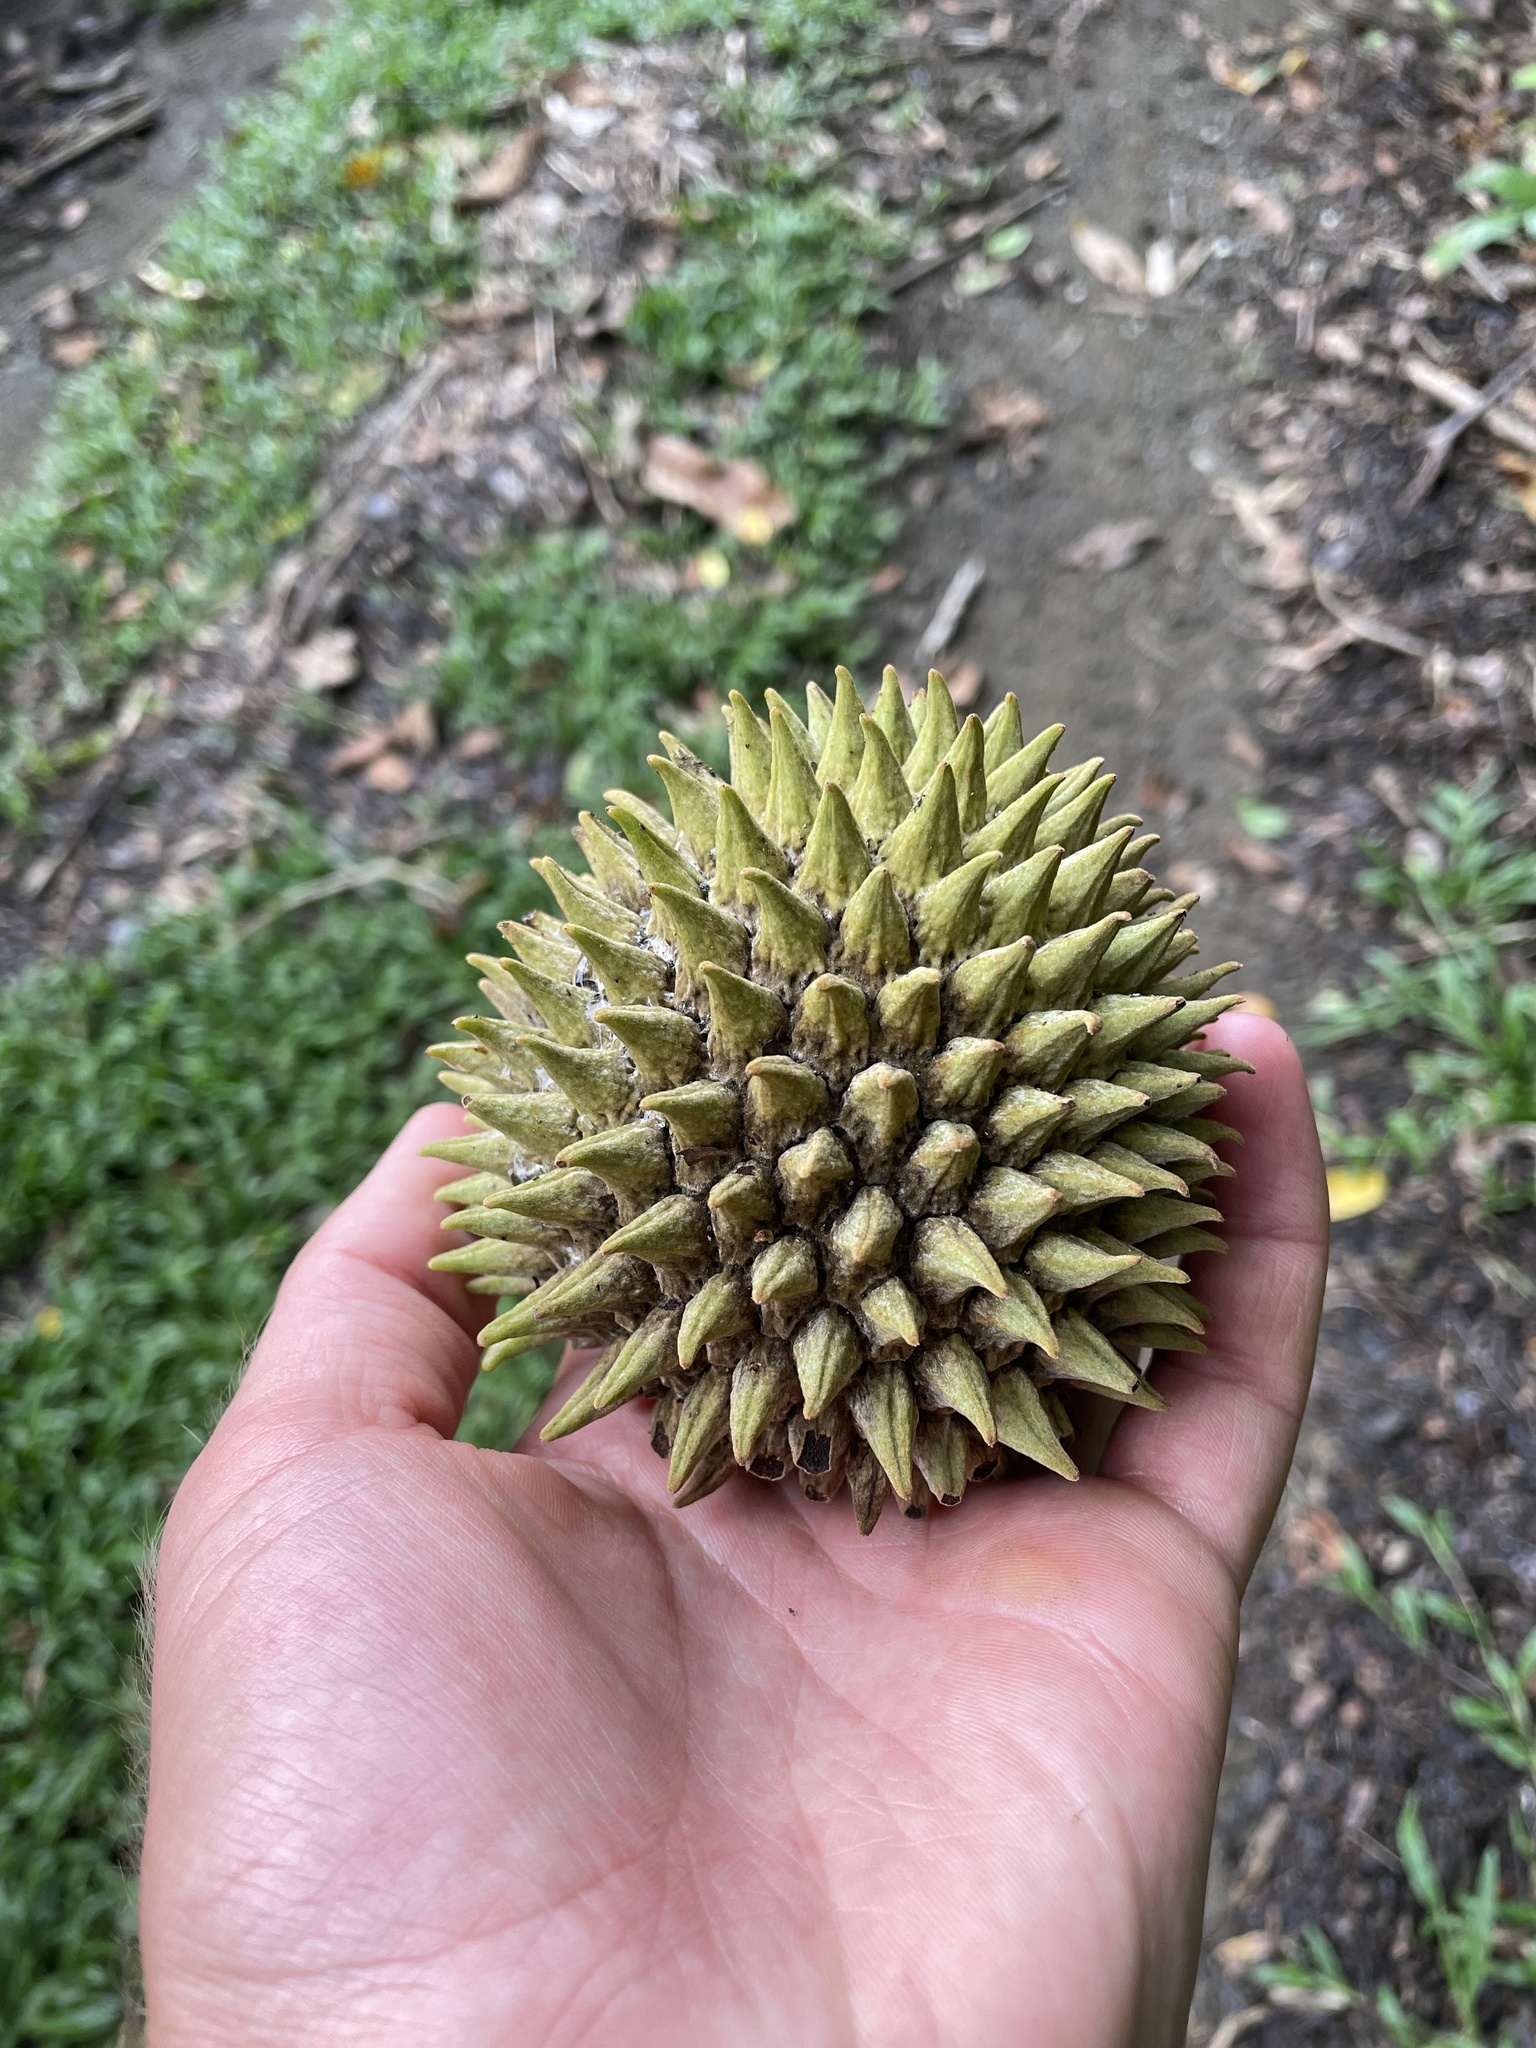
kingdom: Plantae
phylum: Tracheophyta
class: Magnoliopsida
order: Magnoliales
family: Annonaceae
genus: Annona
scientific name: Annona purpurea
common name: Negrohead
